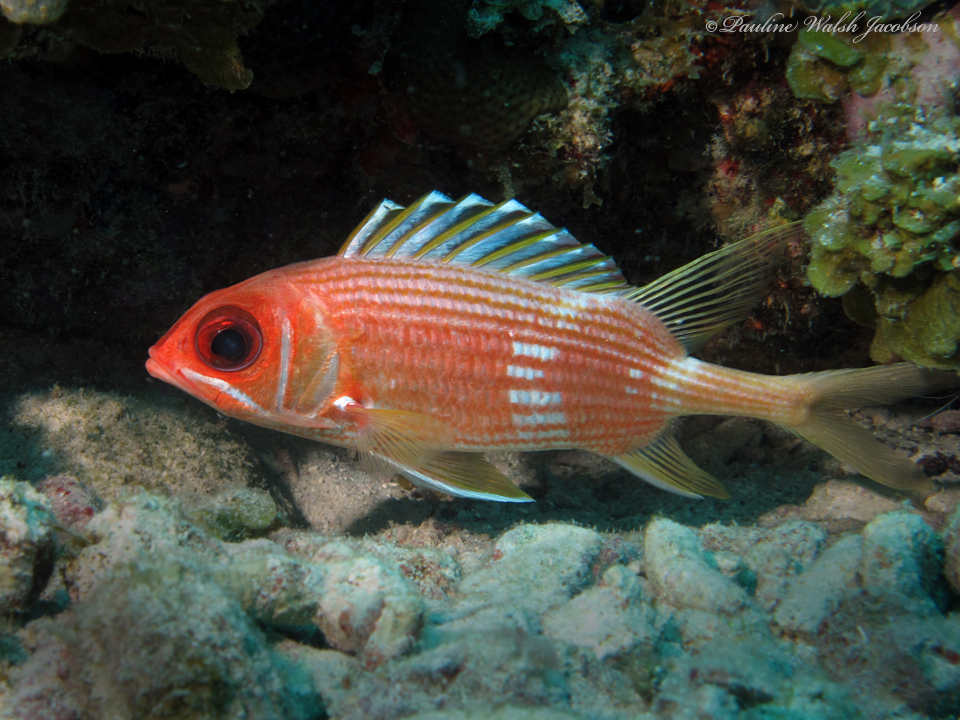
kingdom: Animalia
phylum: Chordata
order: Beryciformes
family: Holocentridae
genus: Holocentrus
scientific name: Holocentrus rufus
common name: Longspine squirrelfish
